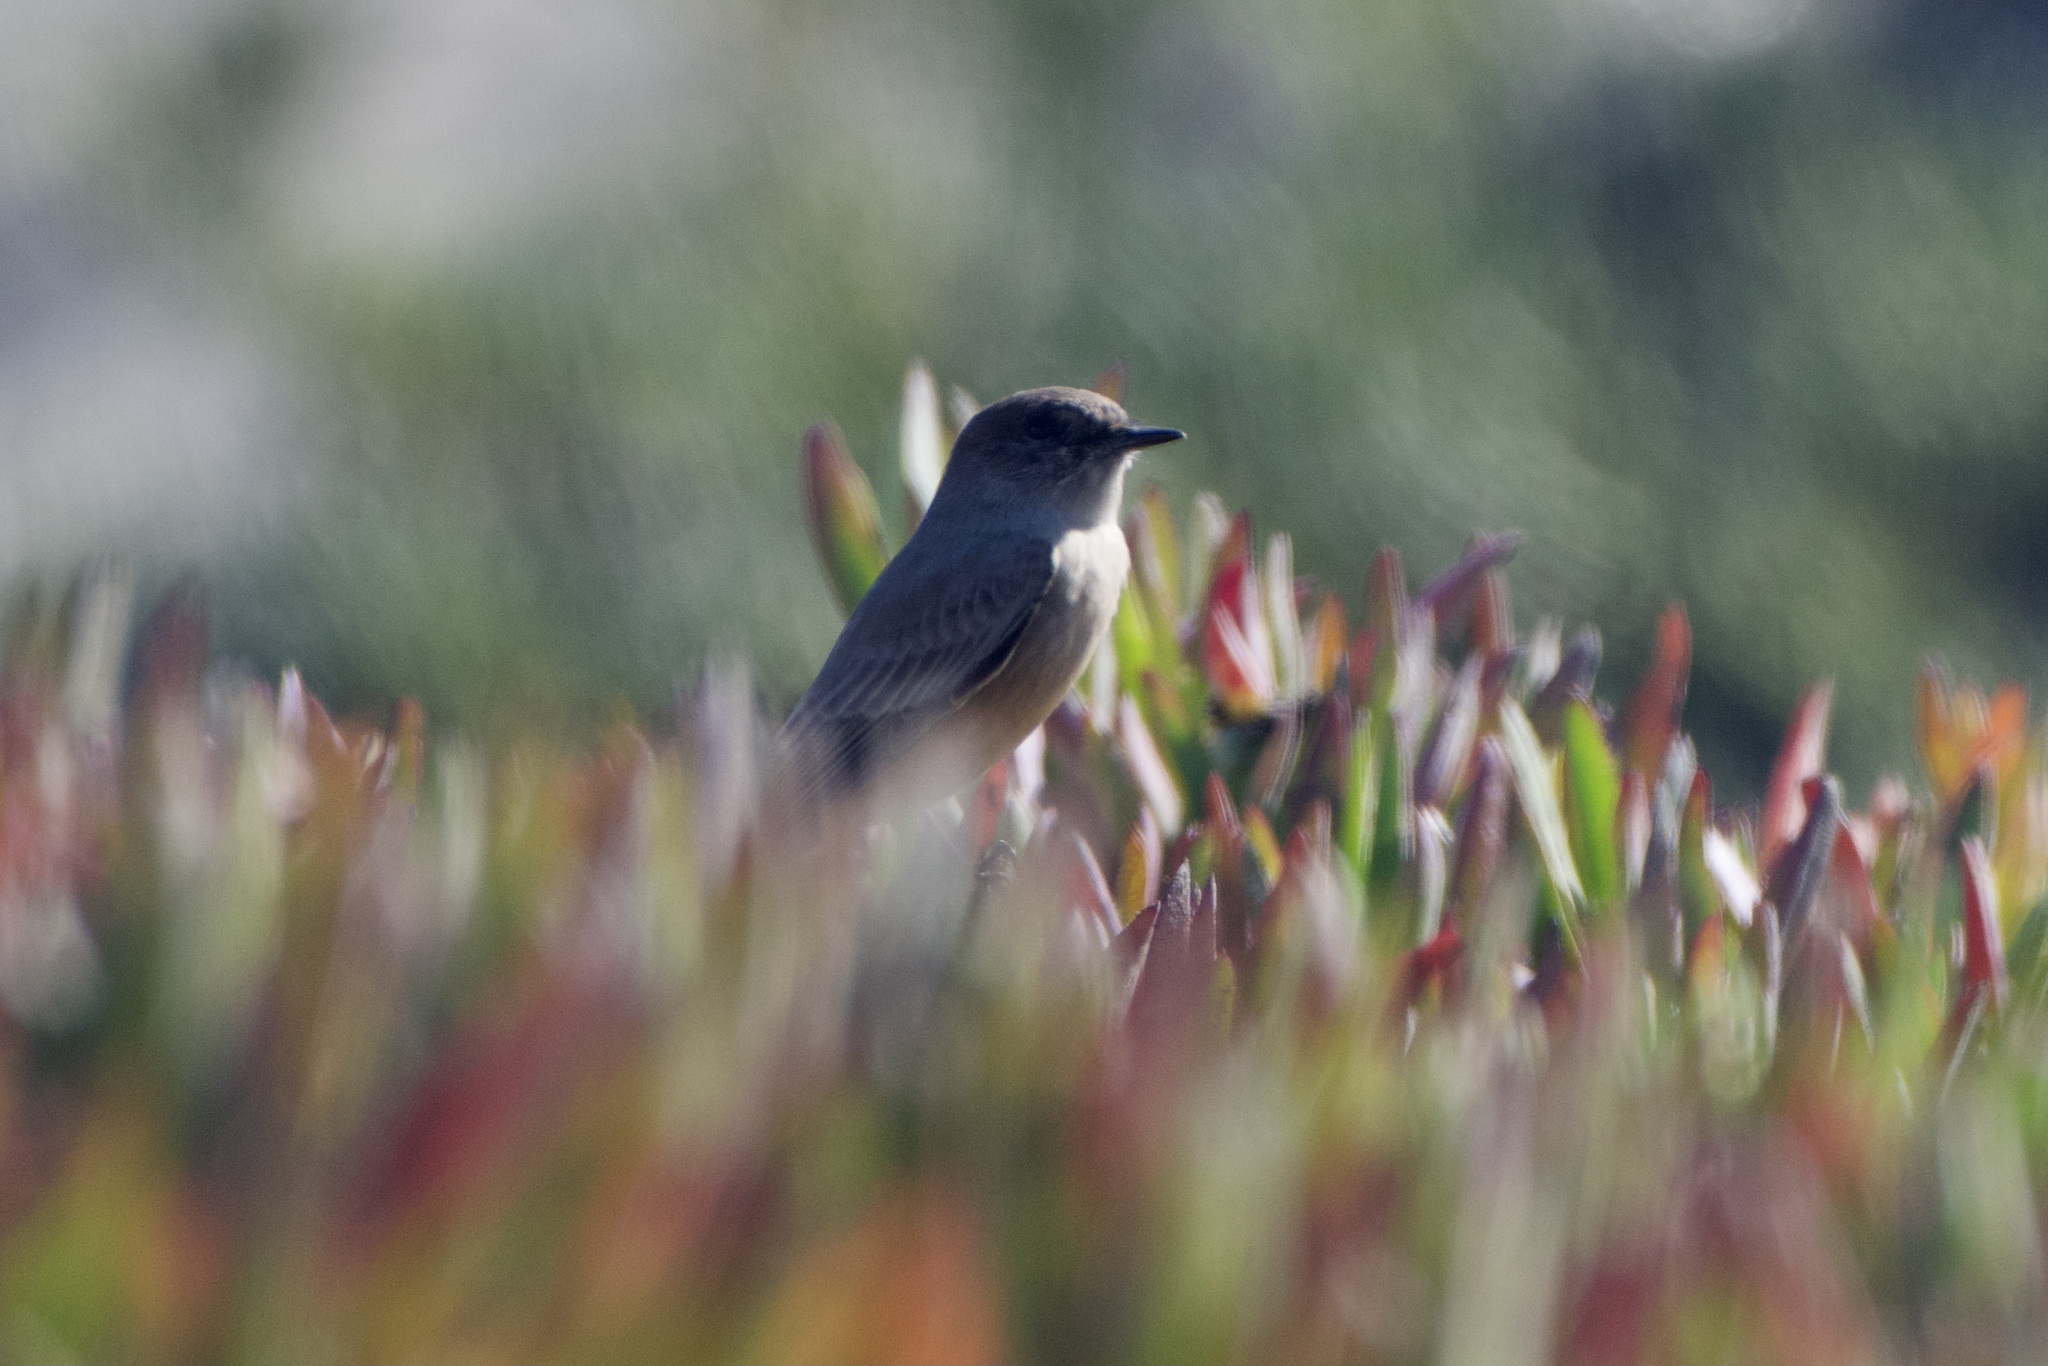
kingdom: Animalia
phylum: Chordata
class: Aves
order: Passeriformes
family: Tyrannidae
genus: Sayornis
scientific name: Sayornis saya
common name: Say's phoebe
